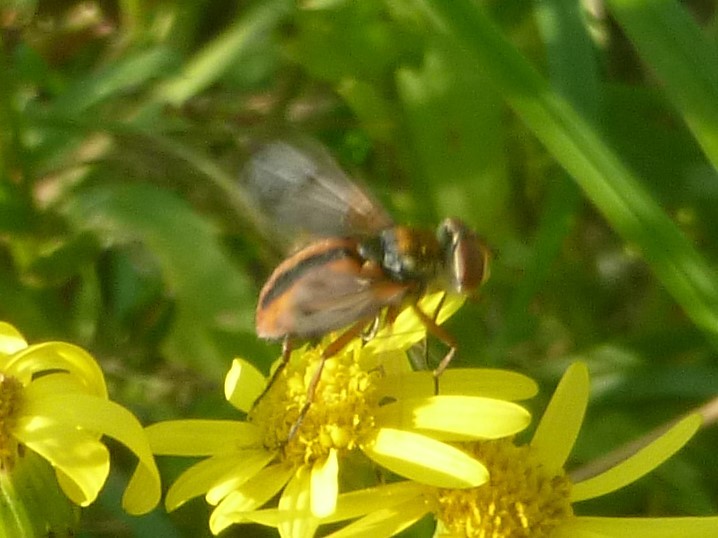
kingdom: Animalia
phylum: Arthropoda
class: Insecta
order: Diptera
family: Tachinidae
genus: Ectophasia
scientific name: Ectophasia crassipennis
